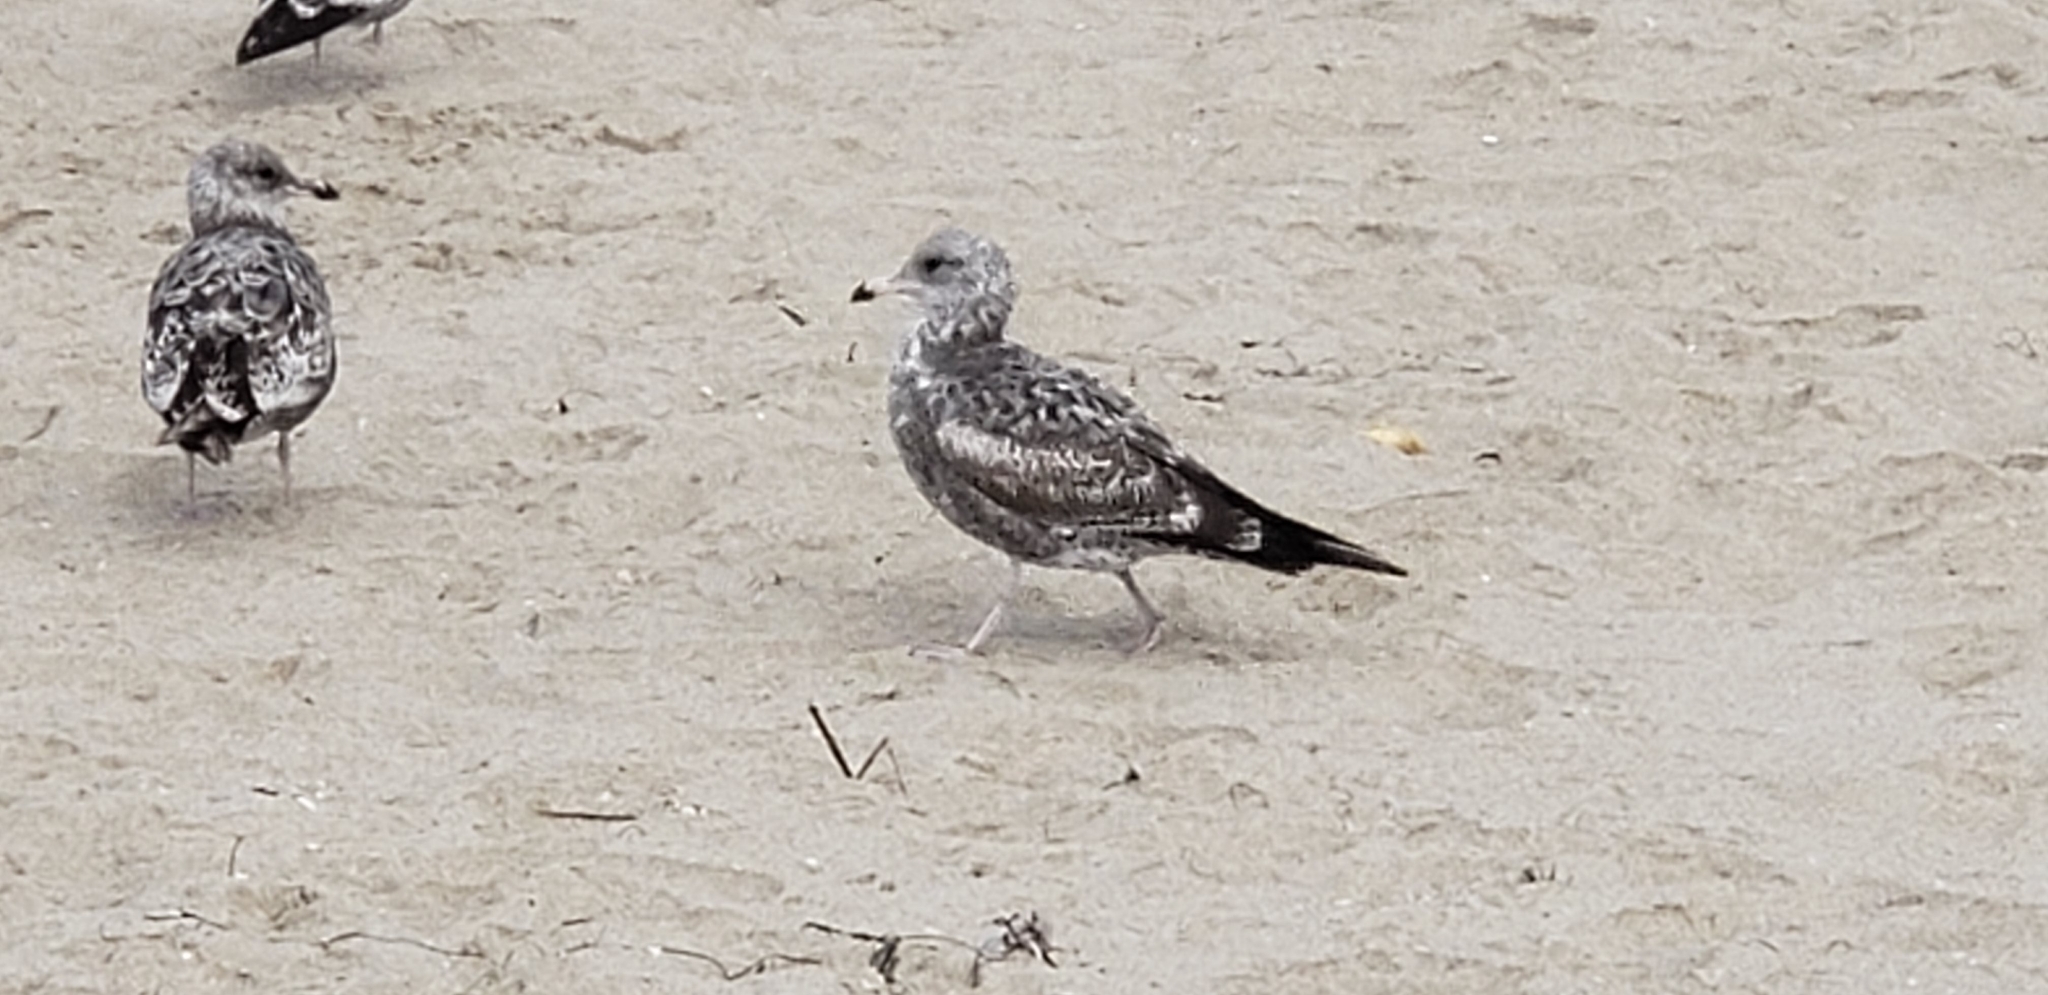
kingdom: Animalia
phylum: Chordata
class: Aves
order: Charadriiformes
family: Laridae
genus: Larus
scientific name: Larus californicus
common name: California gull
